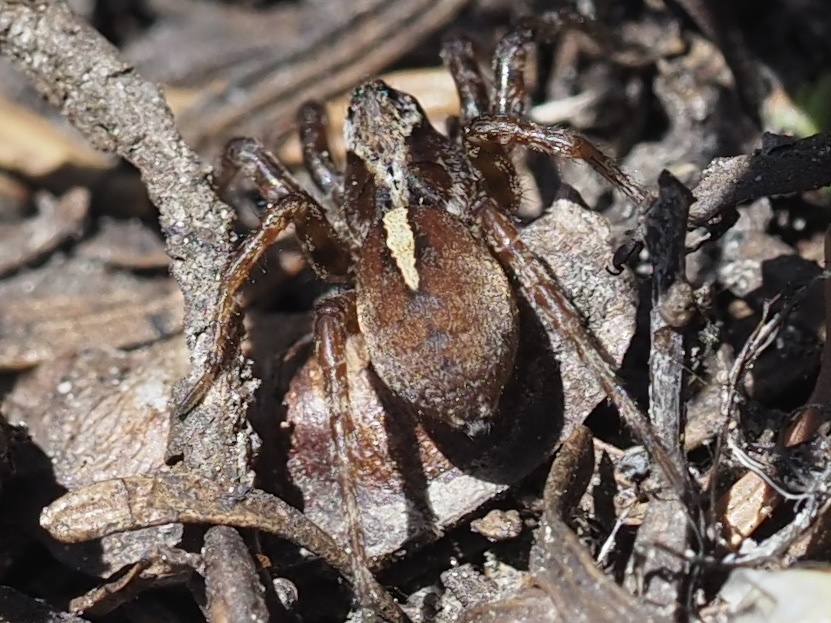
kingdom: Animalia
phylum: Arthropoda
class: Arachnida
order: Araneae
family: Lycosidae
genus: Arctosa
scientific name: Arctosa alpigena
